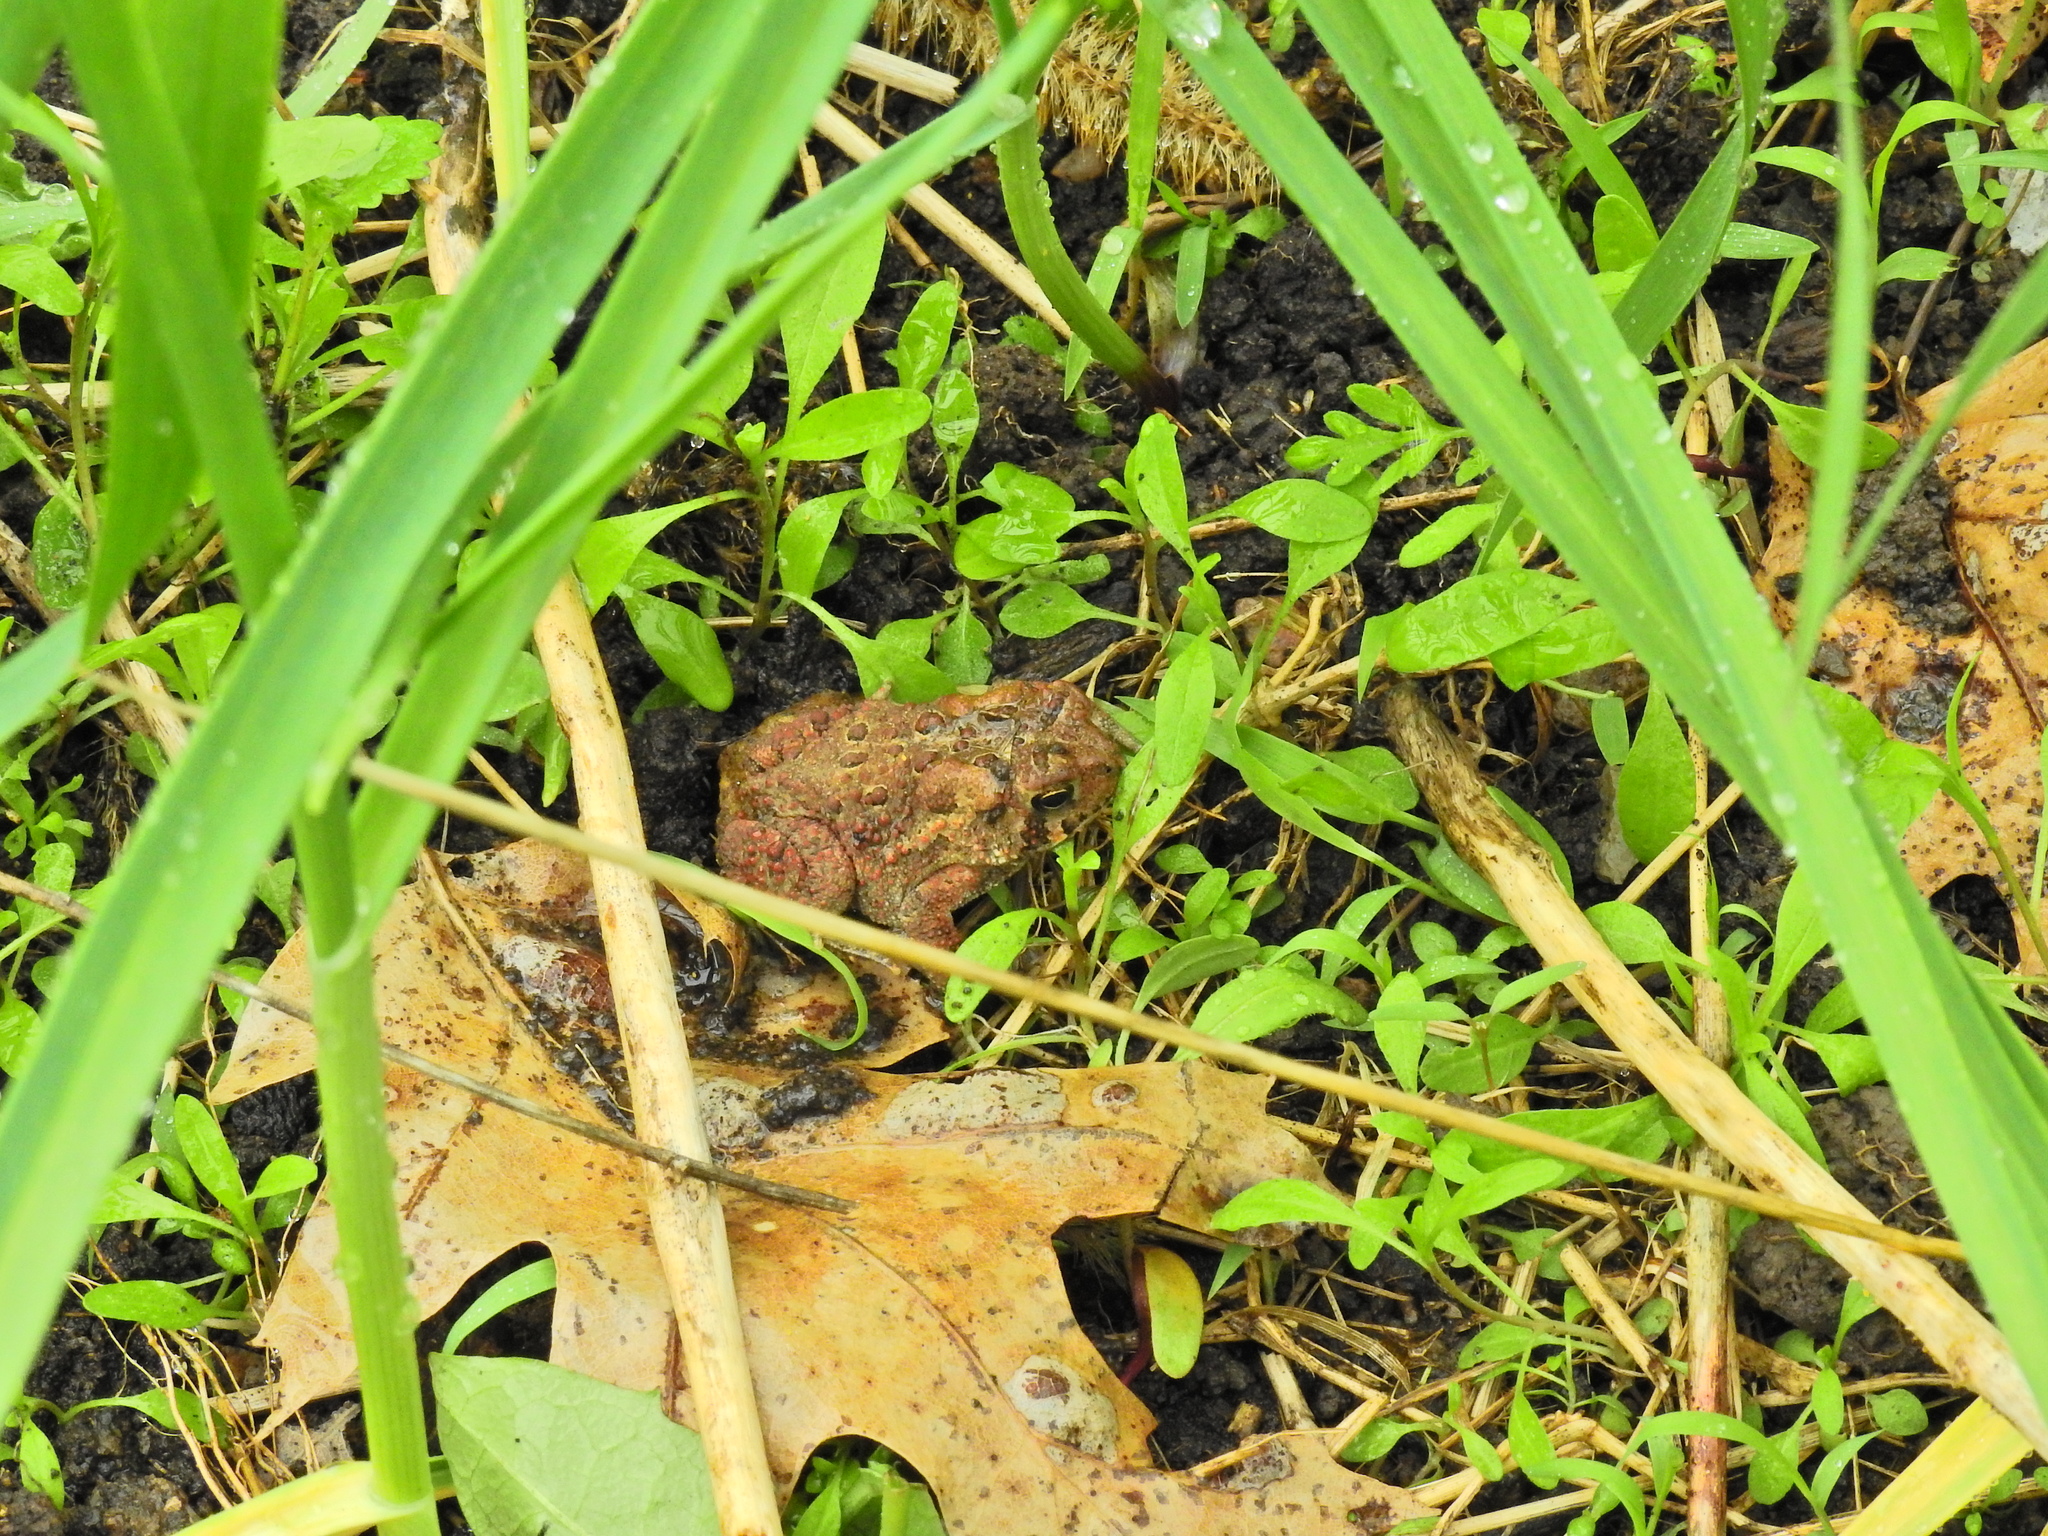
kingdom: Animalia
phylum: Chordata
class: Amphibia
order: Anura
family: Bufonidae
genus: Anaxyrus
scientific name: Anaxyrus americanus
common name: American toad
